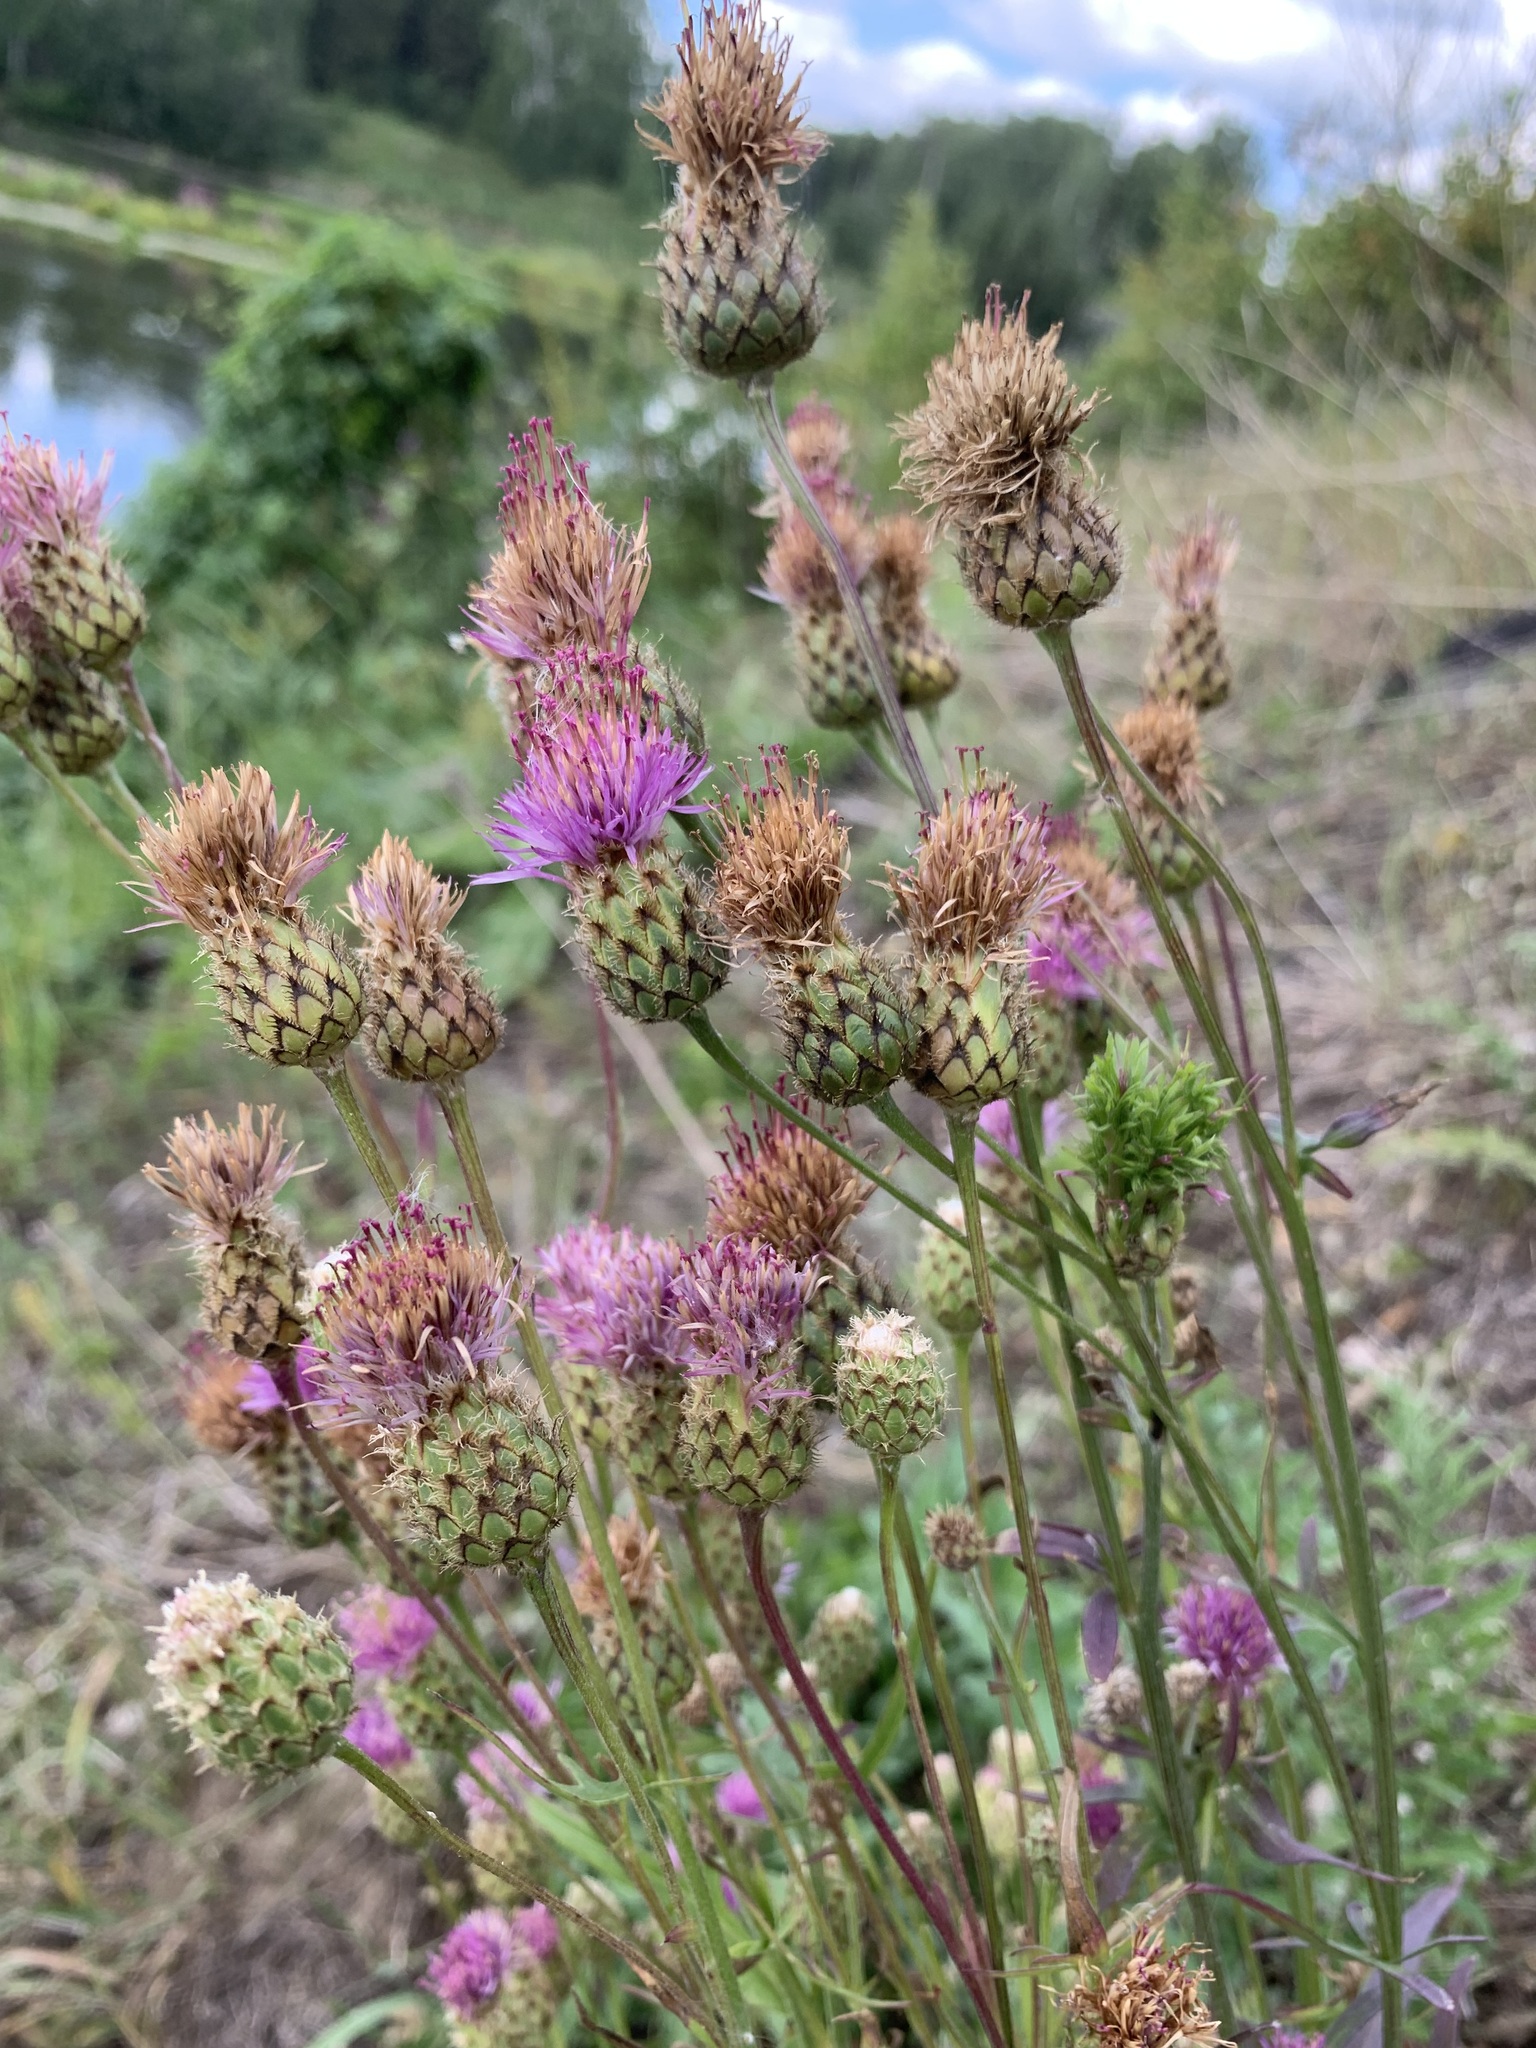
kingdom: Plantae
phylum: Tracheophyta
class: Magnoliopsida
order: Asterales
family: Asteraceae
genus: Centaurea
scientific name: Centaurea scabiosa
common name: Greater knapweed
